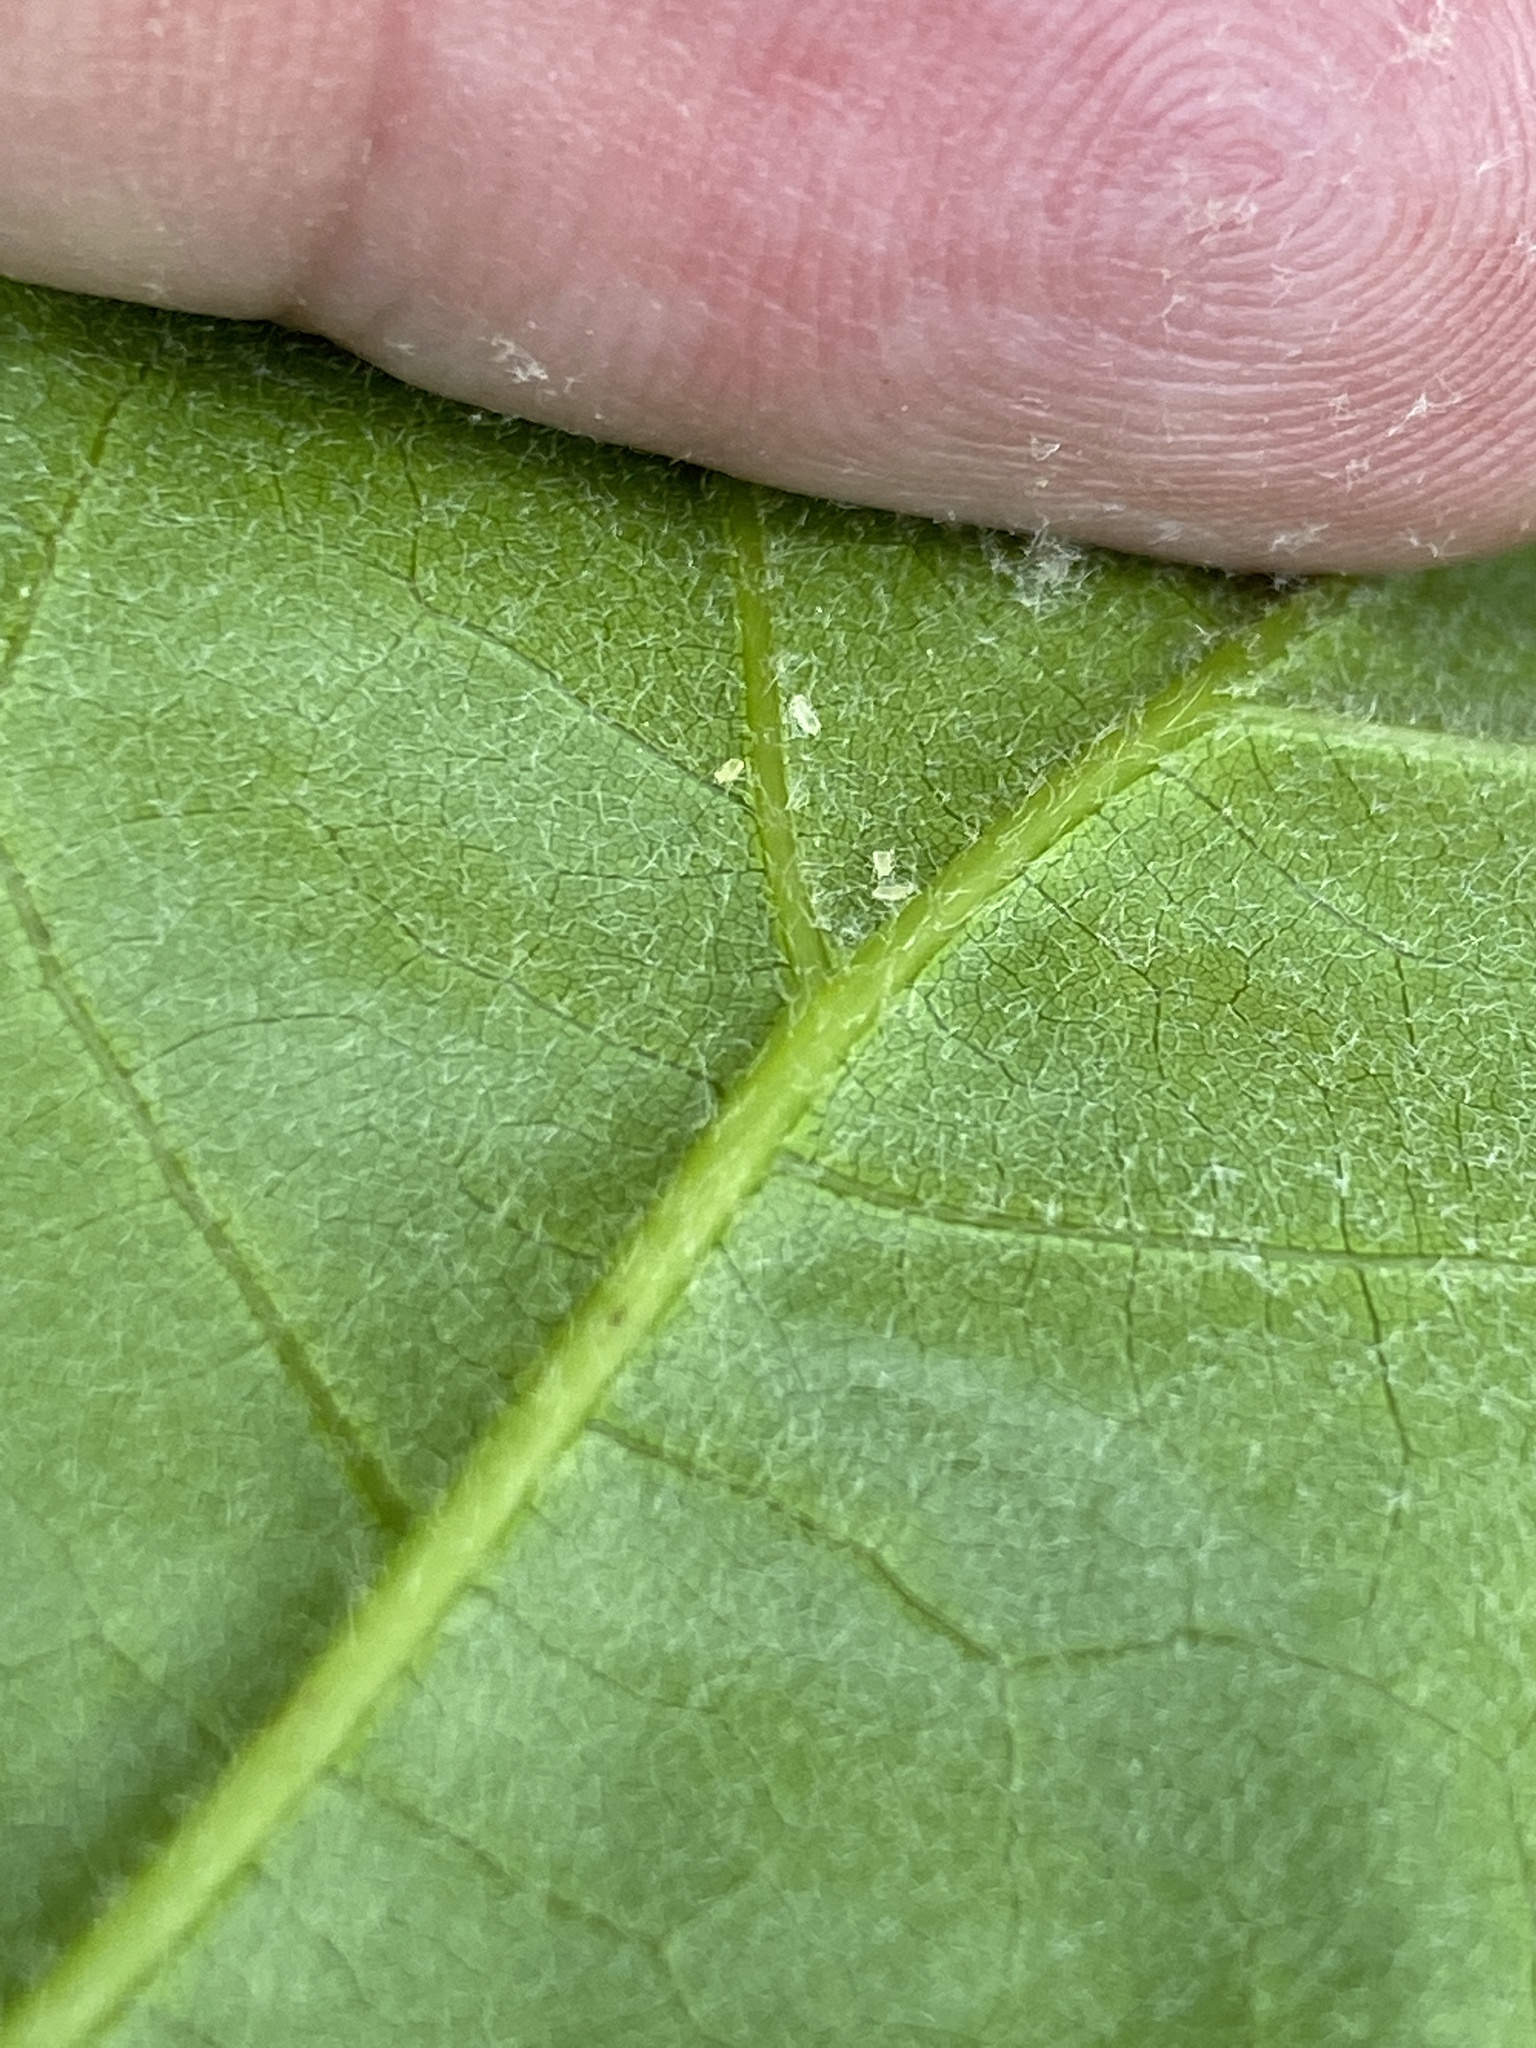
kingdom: Plantae
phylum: Tracheophyta
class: Magnoliopsida
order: Fagales
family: Fagaceae
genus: Quercus
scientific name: Quercus velutina
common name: Black oak
